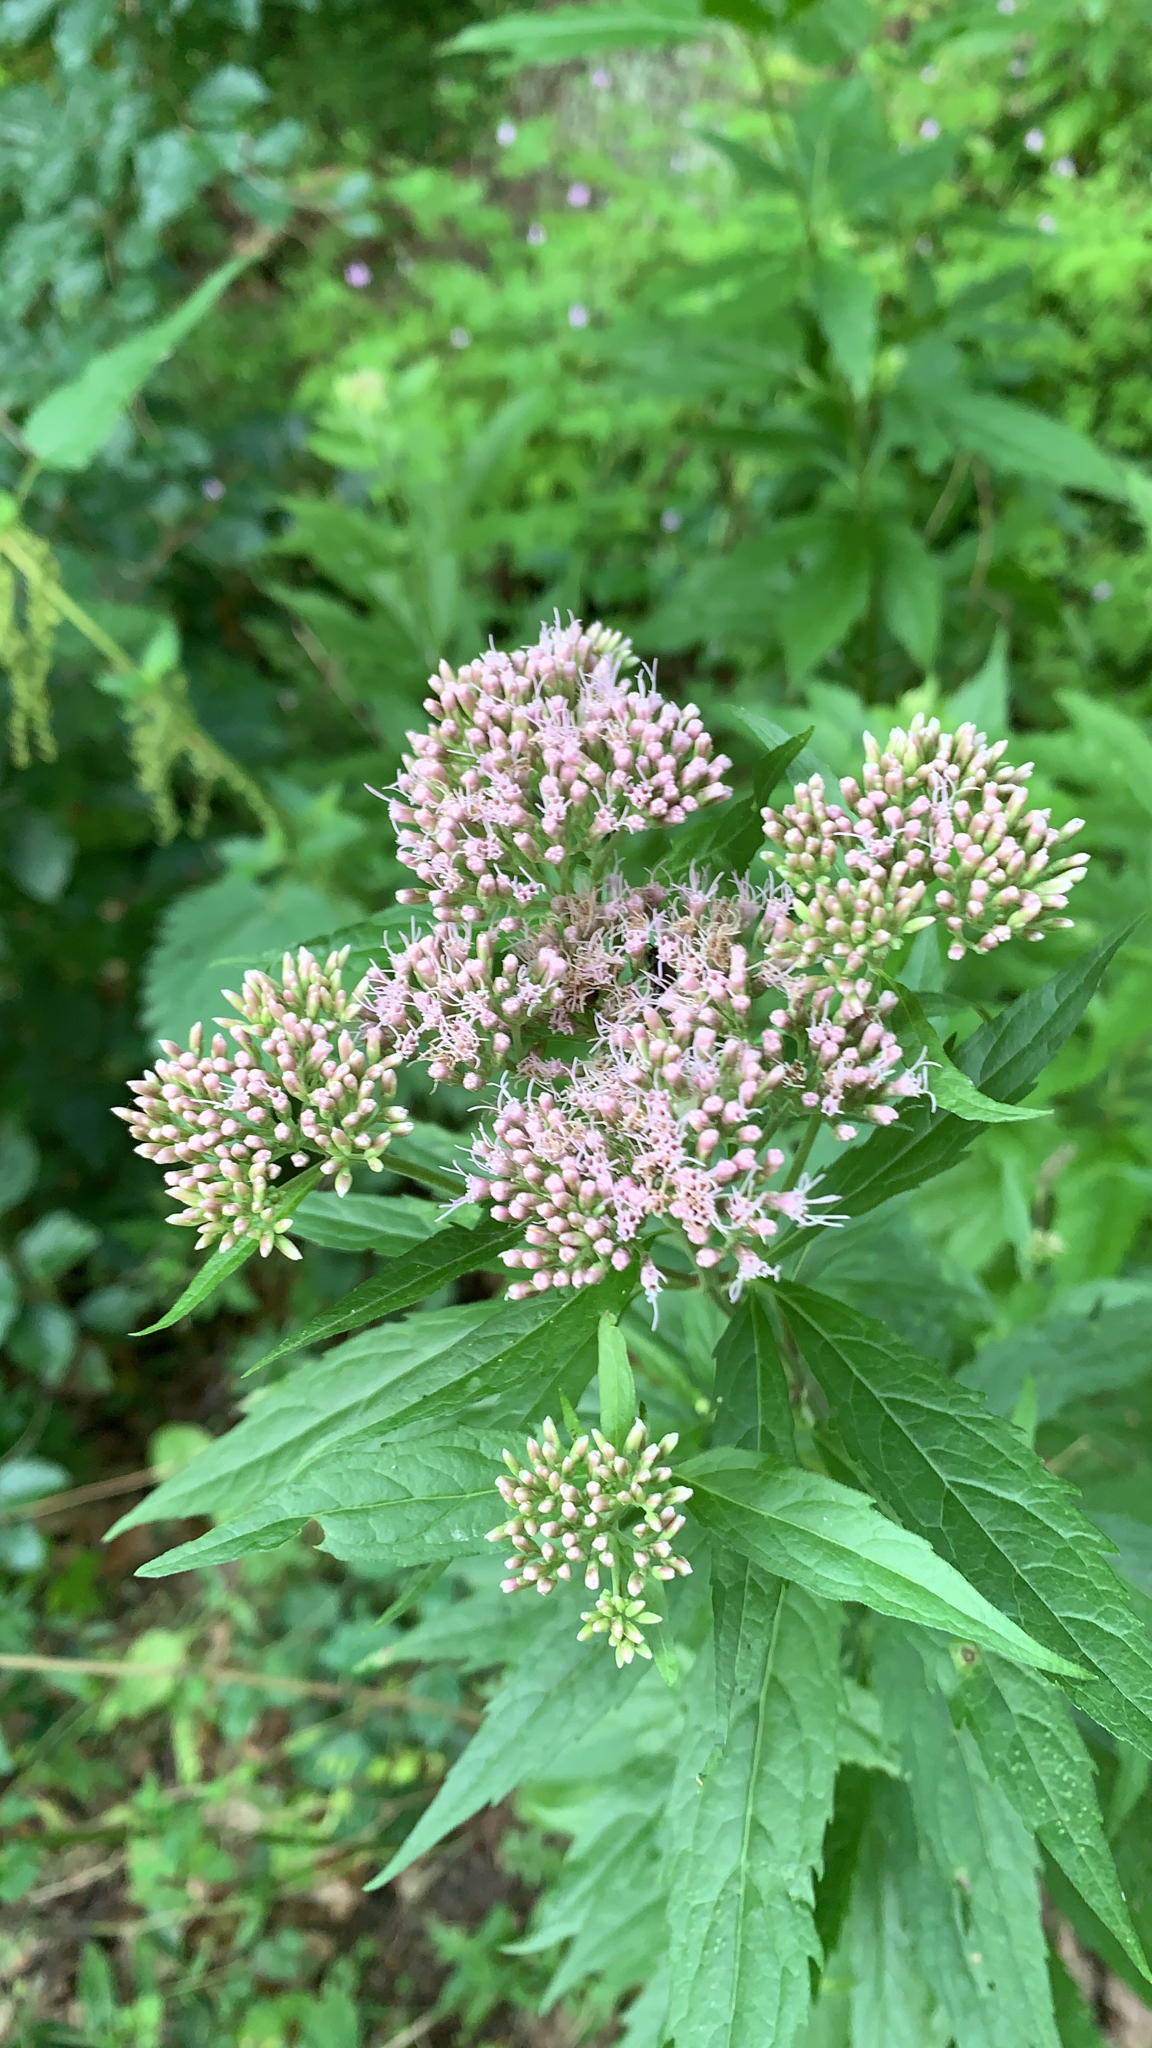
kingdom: Plantae
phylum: Tracheophyta
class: Magnoliopsida
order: Asterales
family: Asteraceae
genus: Eupatorium
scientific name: Eupatorium cannabinum
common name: Hemp-agrimony
